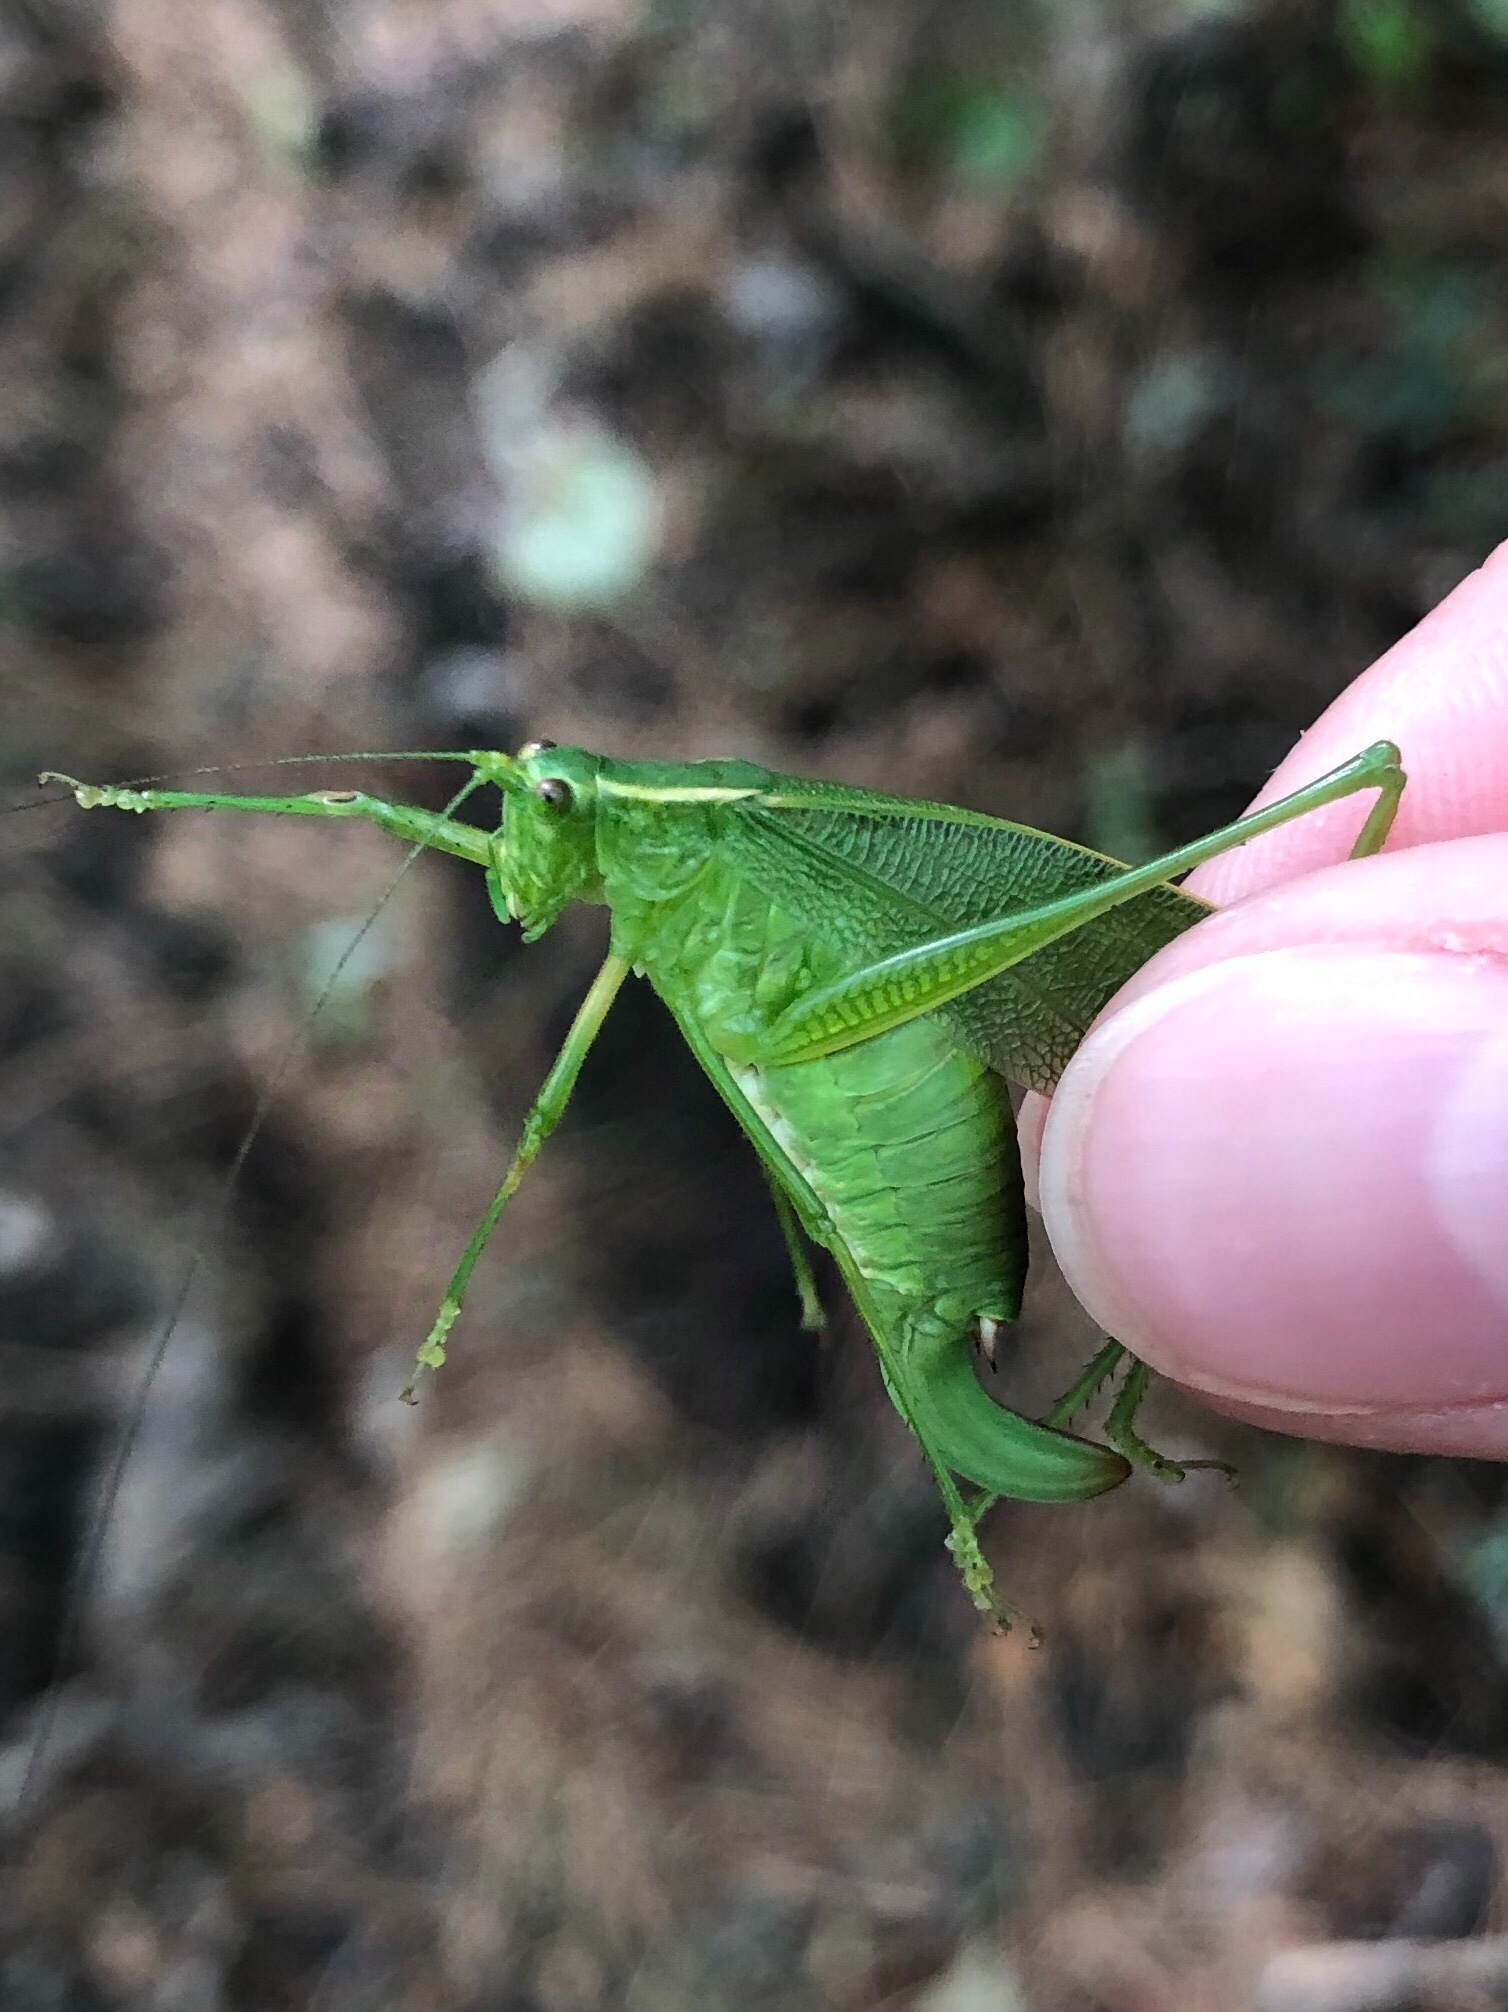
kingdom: Animalia
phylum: Arthropoda
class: Insecta
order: Orthoptera
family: Tettigoniidae
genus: Scudderia
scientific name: Scudderia septentrionalis
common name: Northern bush-katydid
